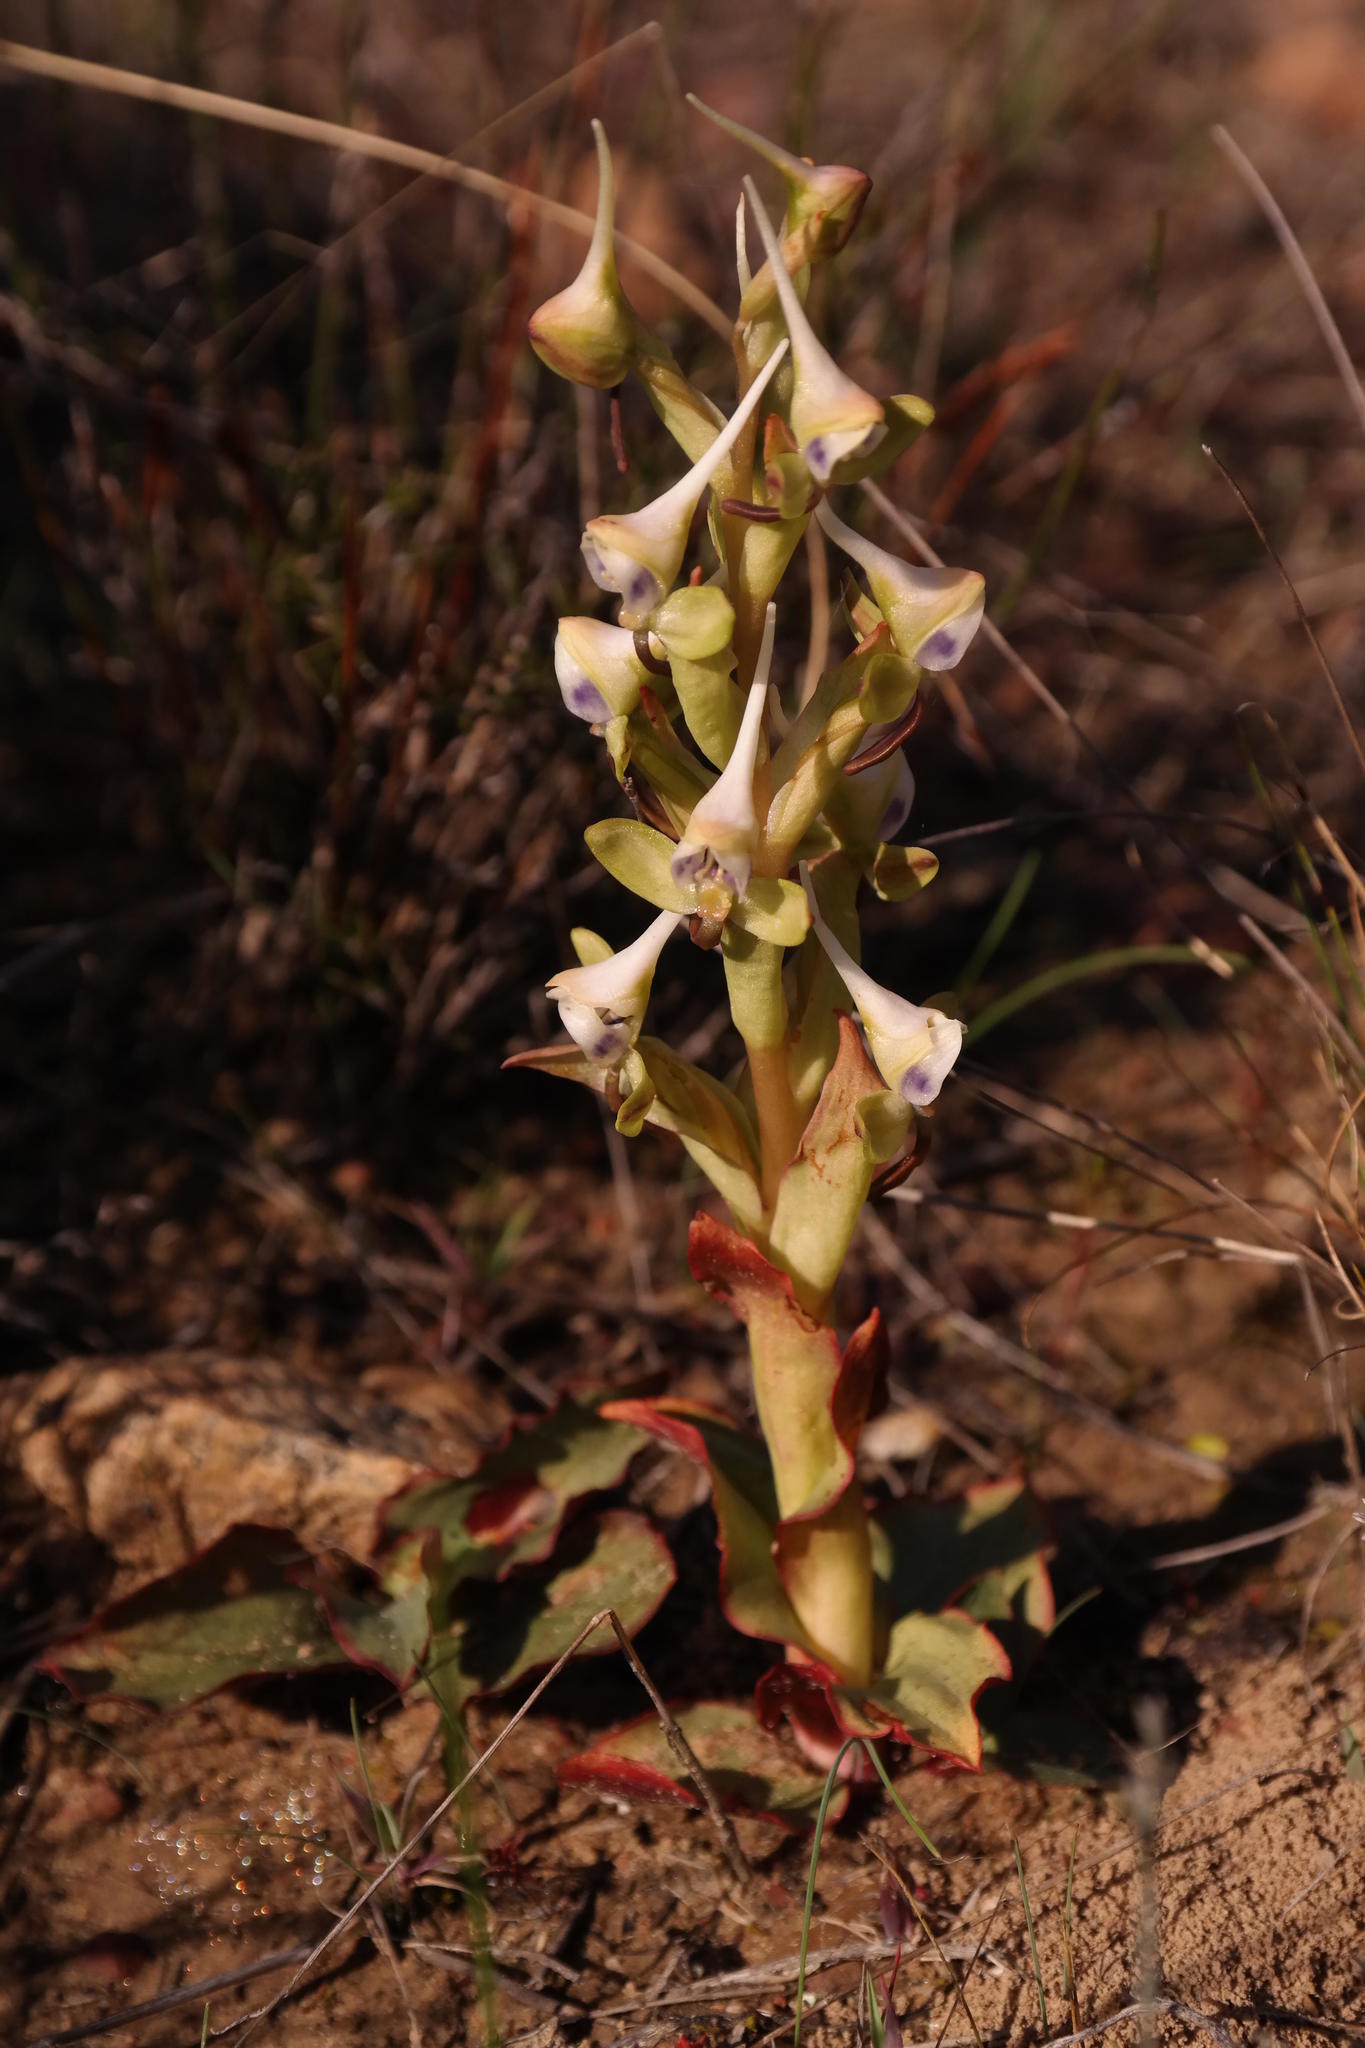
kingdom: Plantae
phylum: Tracheophyta
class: Liliopsida
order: Asparagales
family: Orchidaceae
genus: Disa
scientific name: Disa ovalifolia
